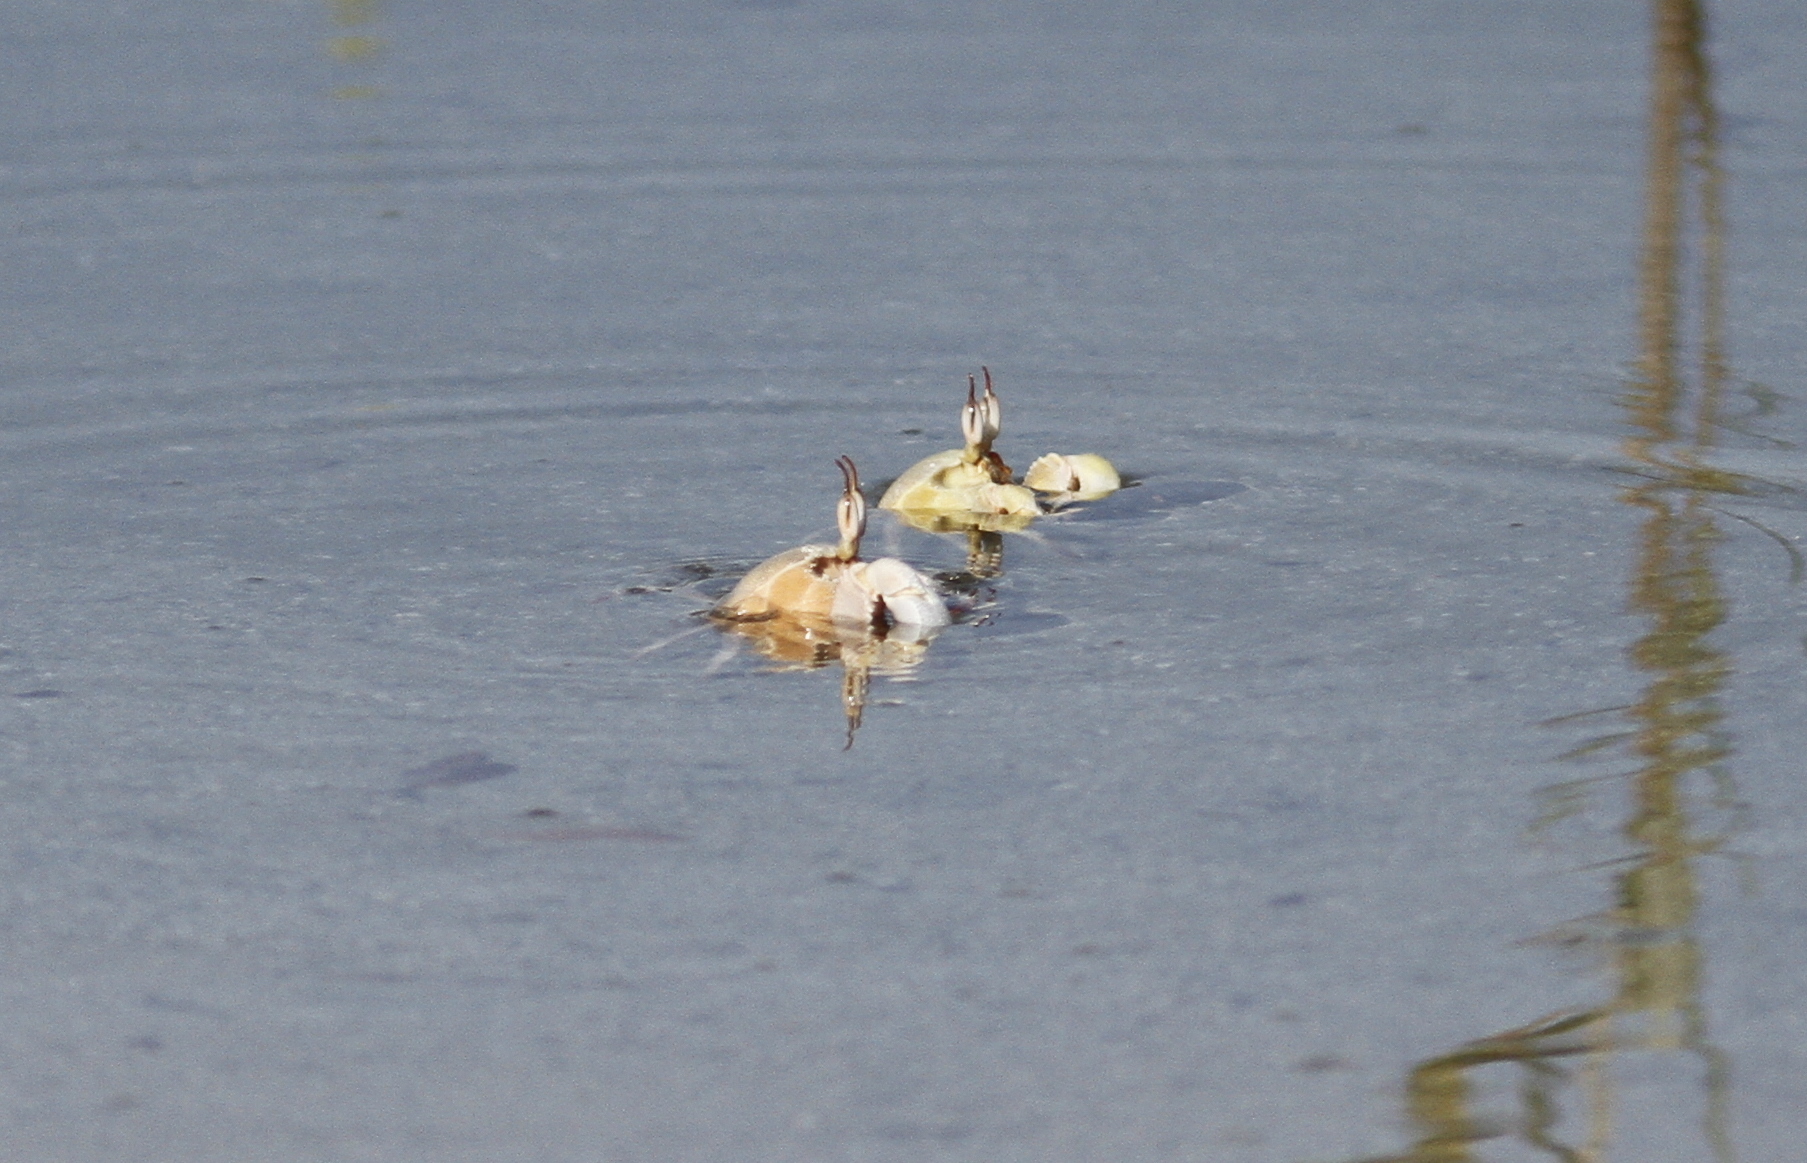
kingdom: Animalia
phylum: Arthropoda
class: Malacostraca
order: Decapoda
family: Ocypodidae
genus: Ocypode
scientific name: Ocypode saratan
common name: Red sea ghost crab
